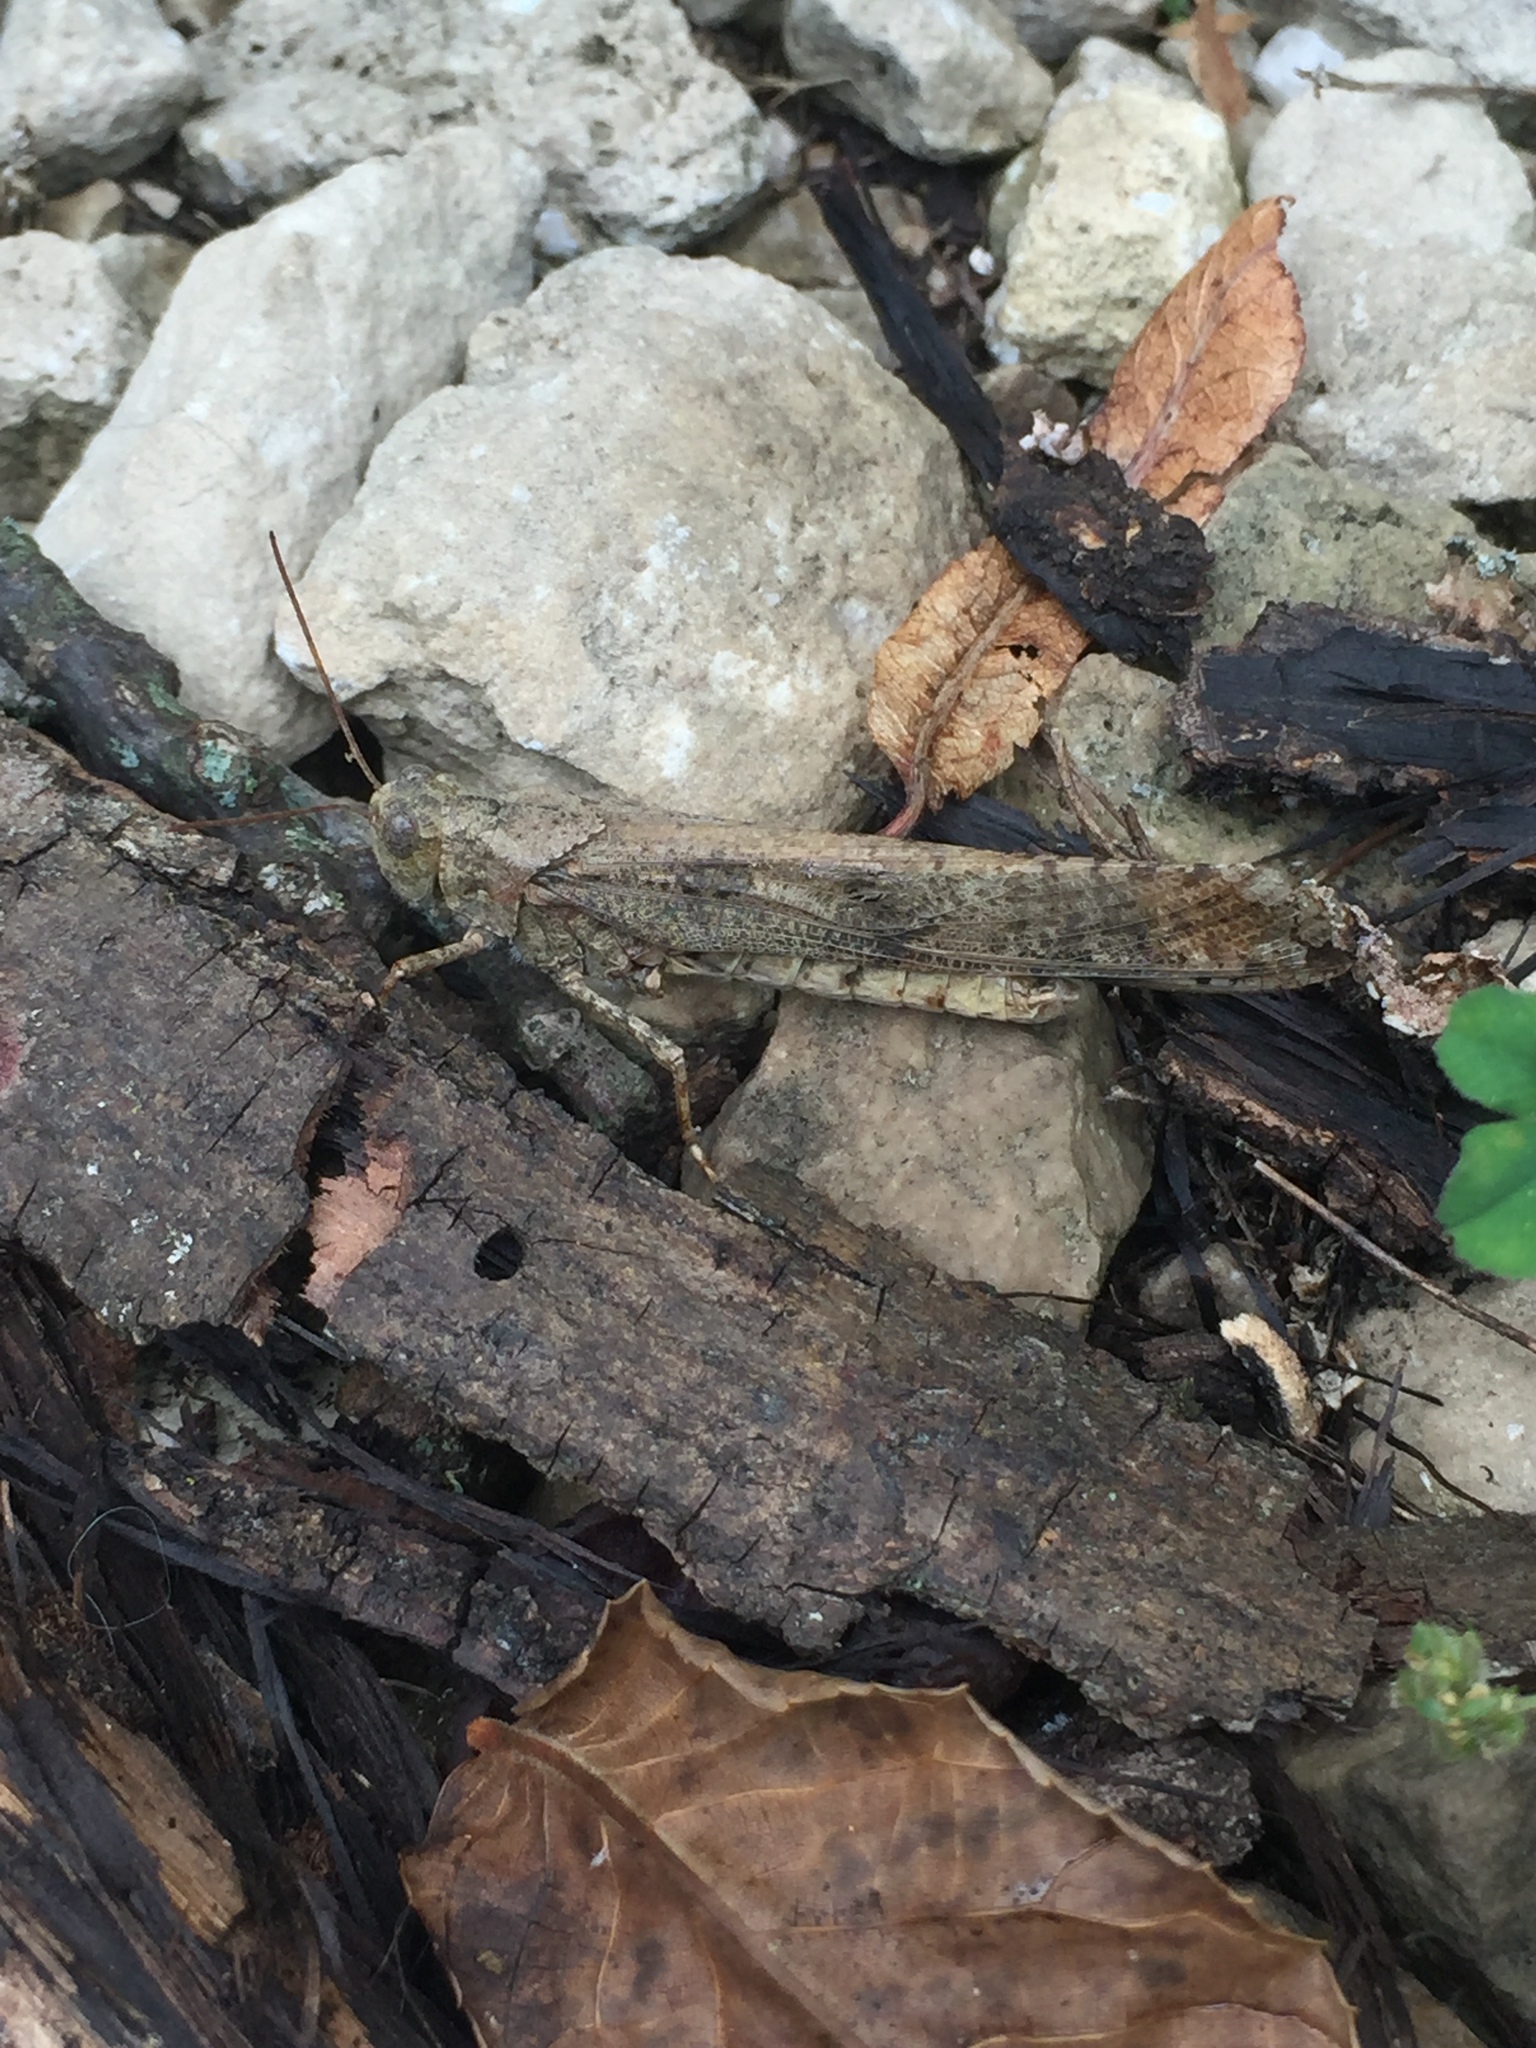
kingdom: Animalia
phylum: Arthropoda
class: Insecta
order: Orthoptera
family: Acrididae
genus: Dissosteira
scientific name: Dissosteira carolina
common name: Carolina grasshopper
